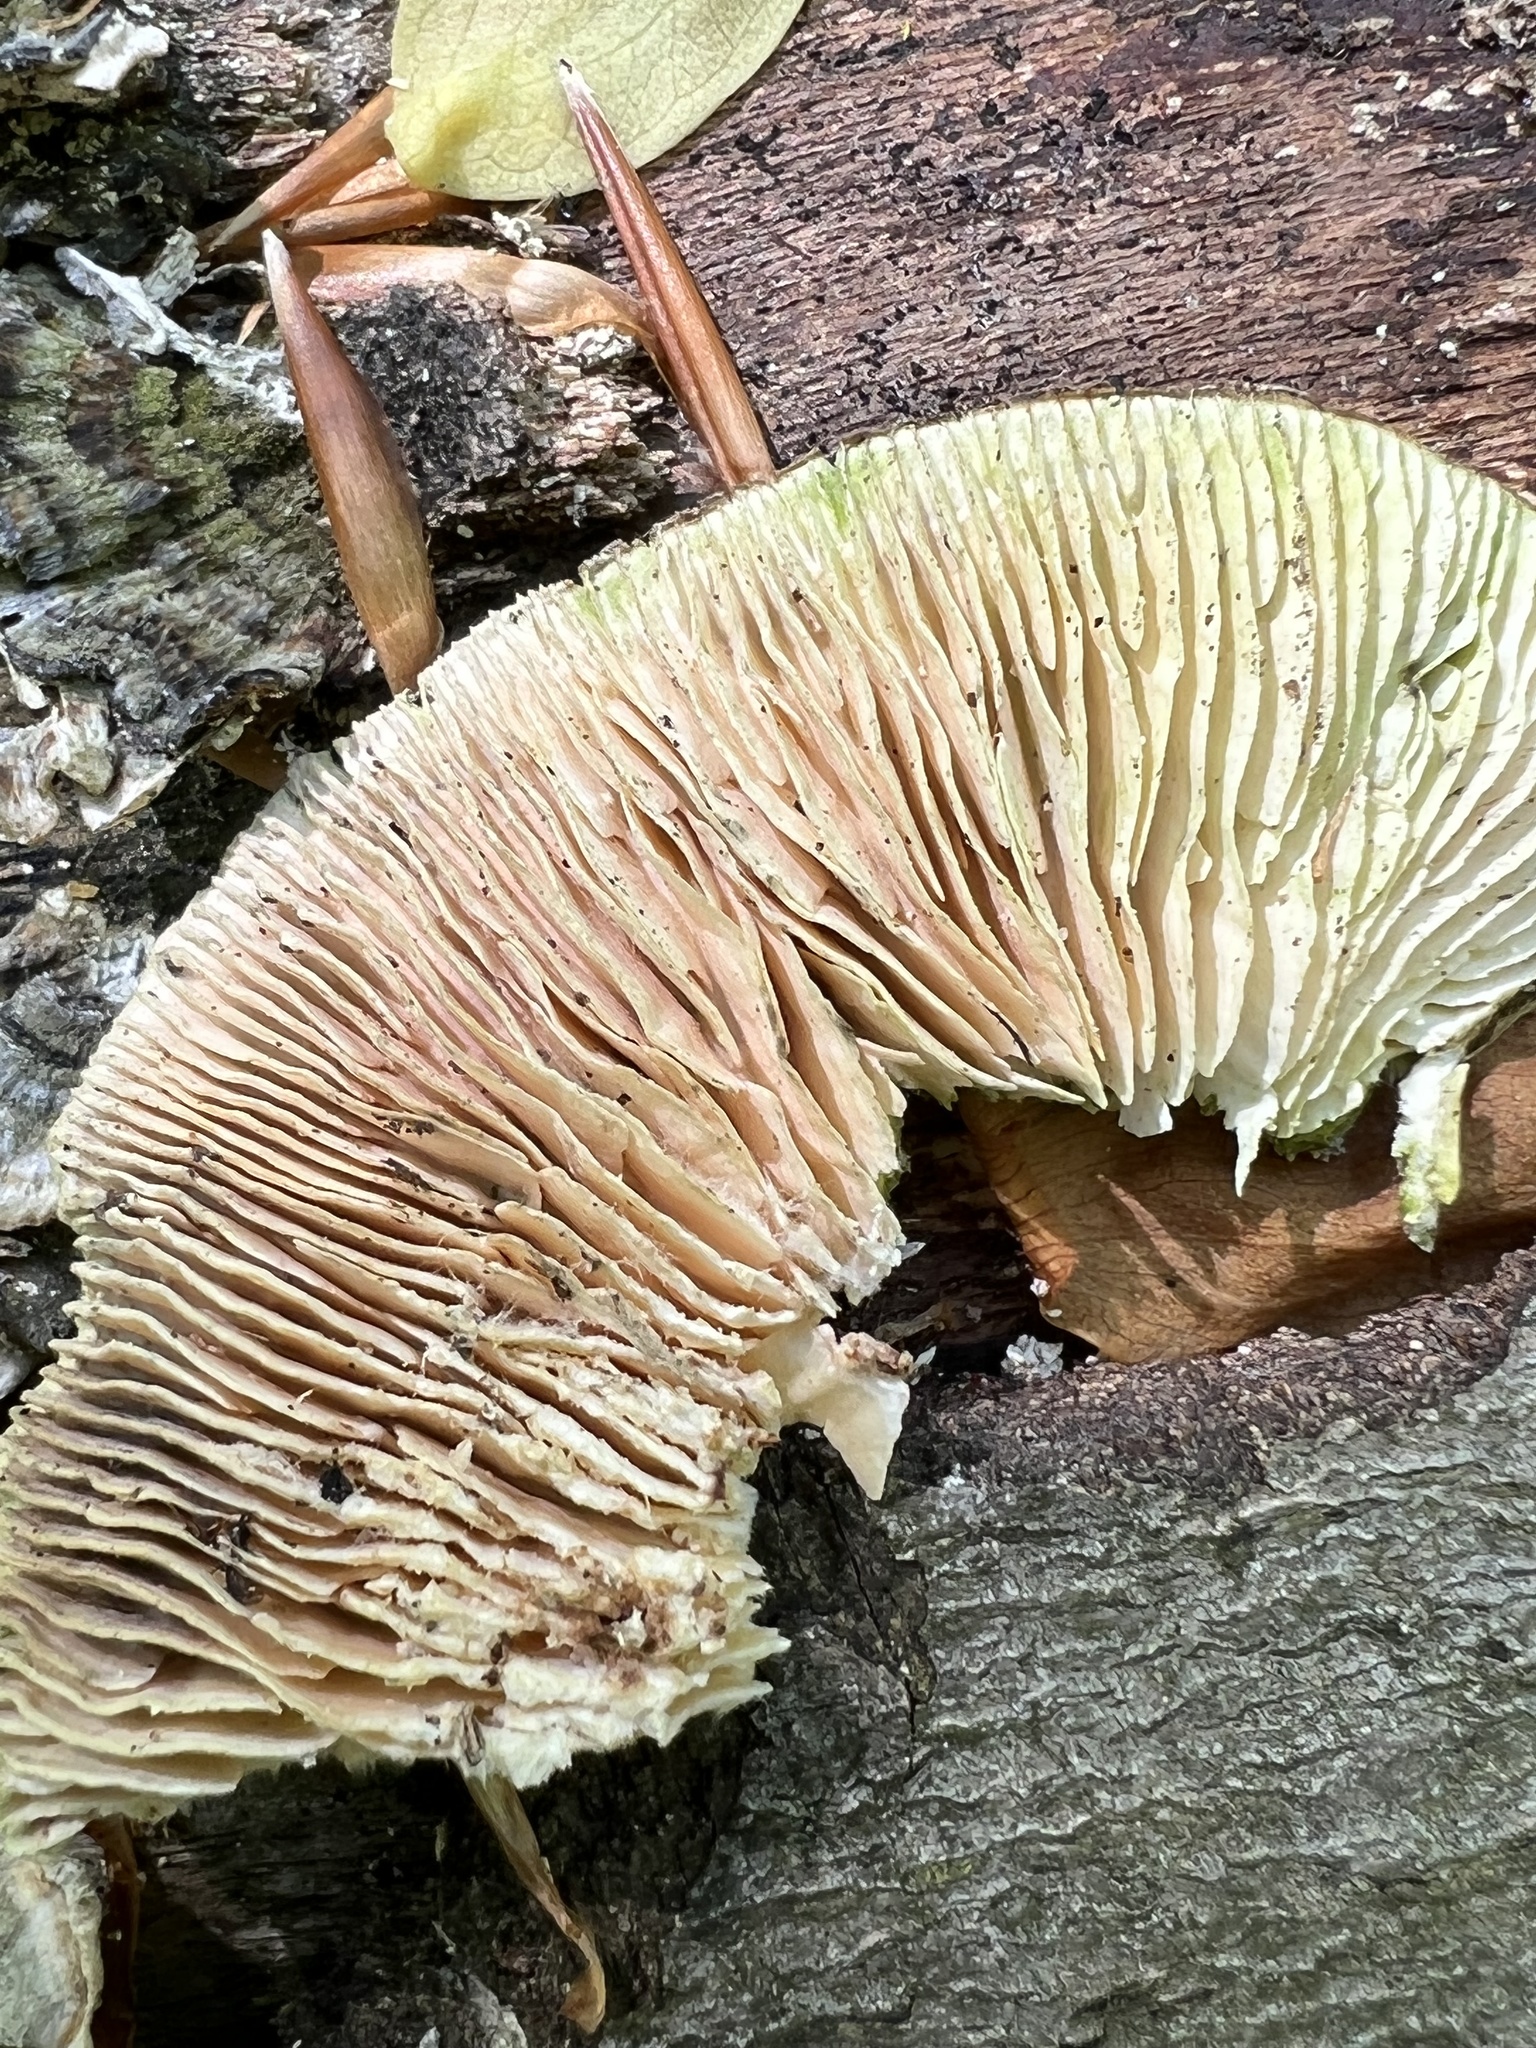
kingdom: Fungi
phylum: Basidiomycota
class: Agaricomycetes
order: Polyporales
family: Polyporaceae
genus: Lenzites
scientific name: Lenzites betulinus
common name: Birch mazegill
